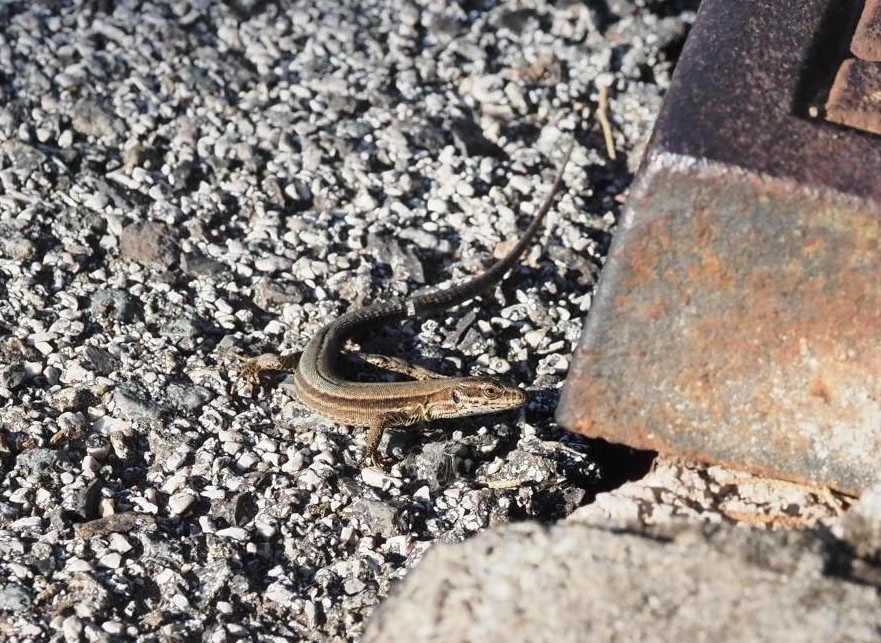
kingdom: Animalia
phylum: Chordata
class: Squamata
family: Lacertidae
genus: Podarcis
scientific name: Podarcis muralis
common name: Common wall lizard
